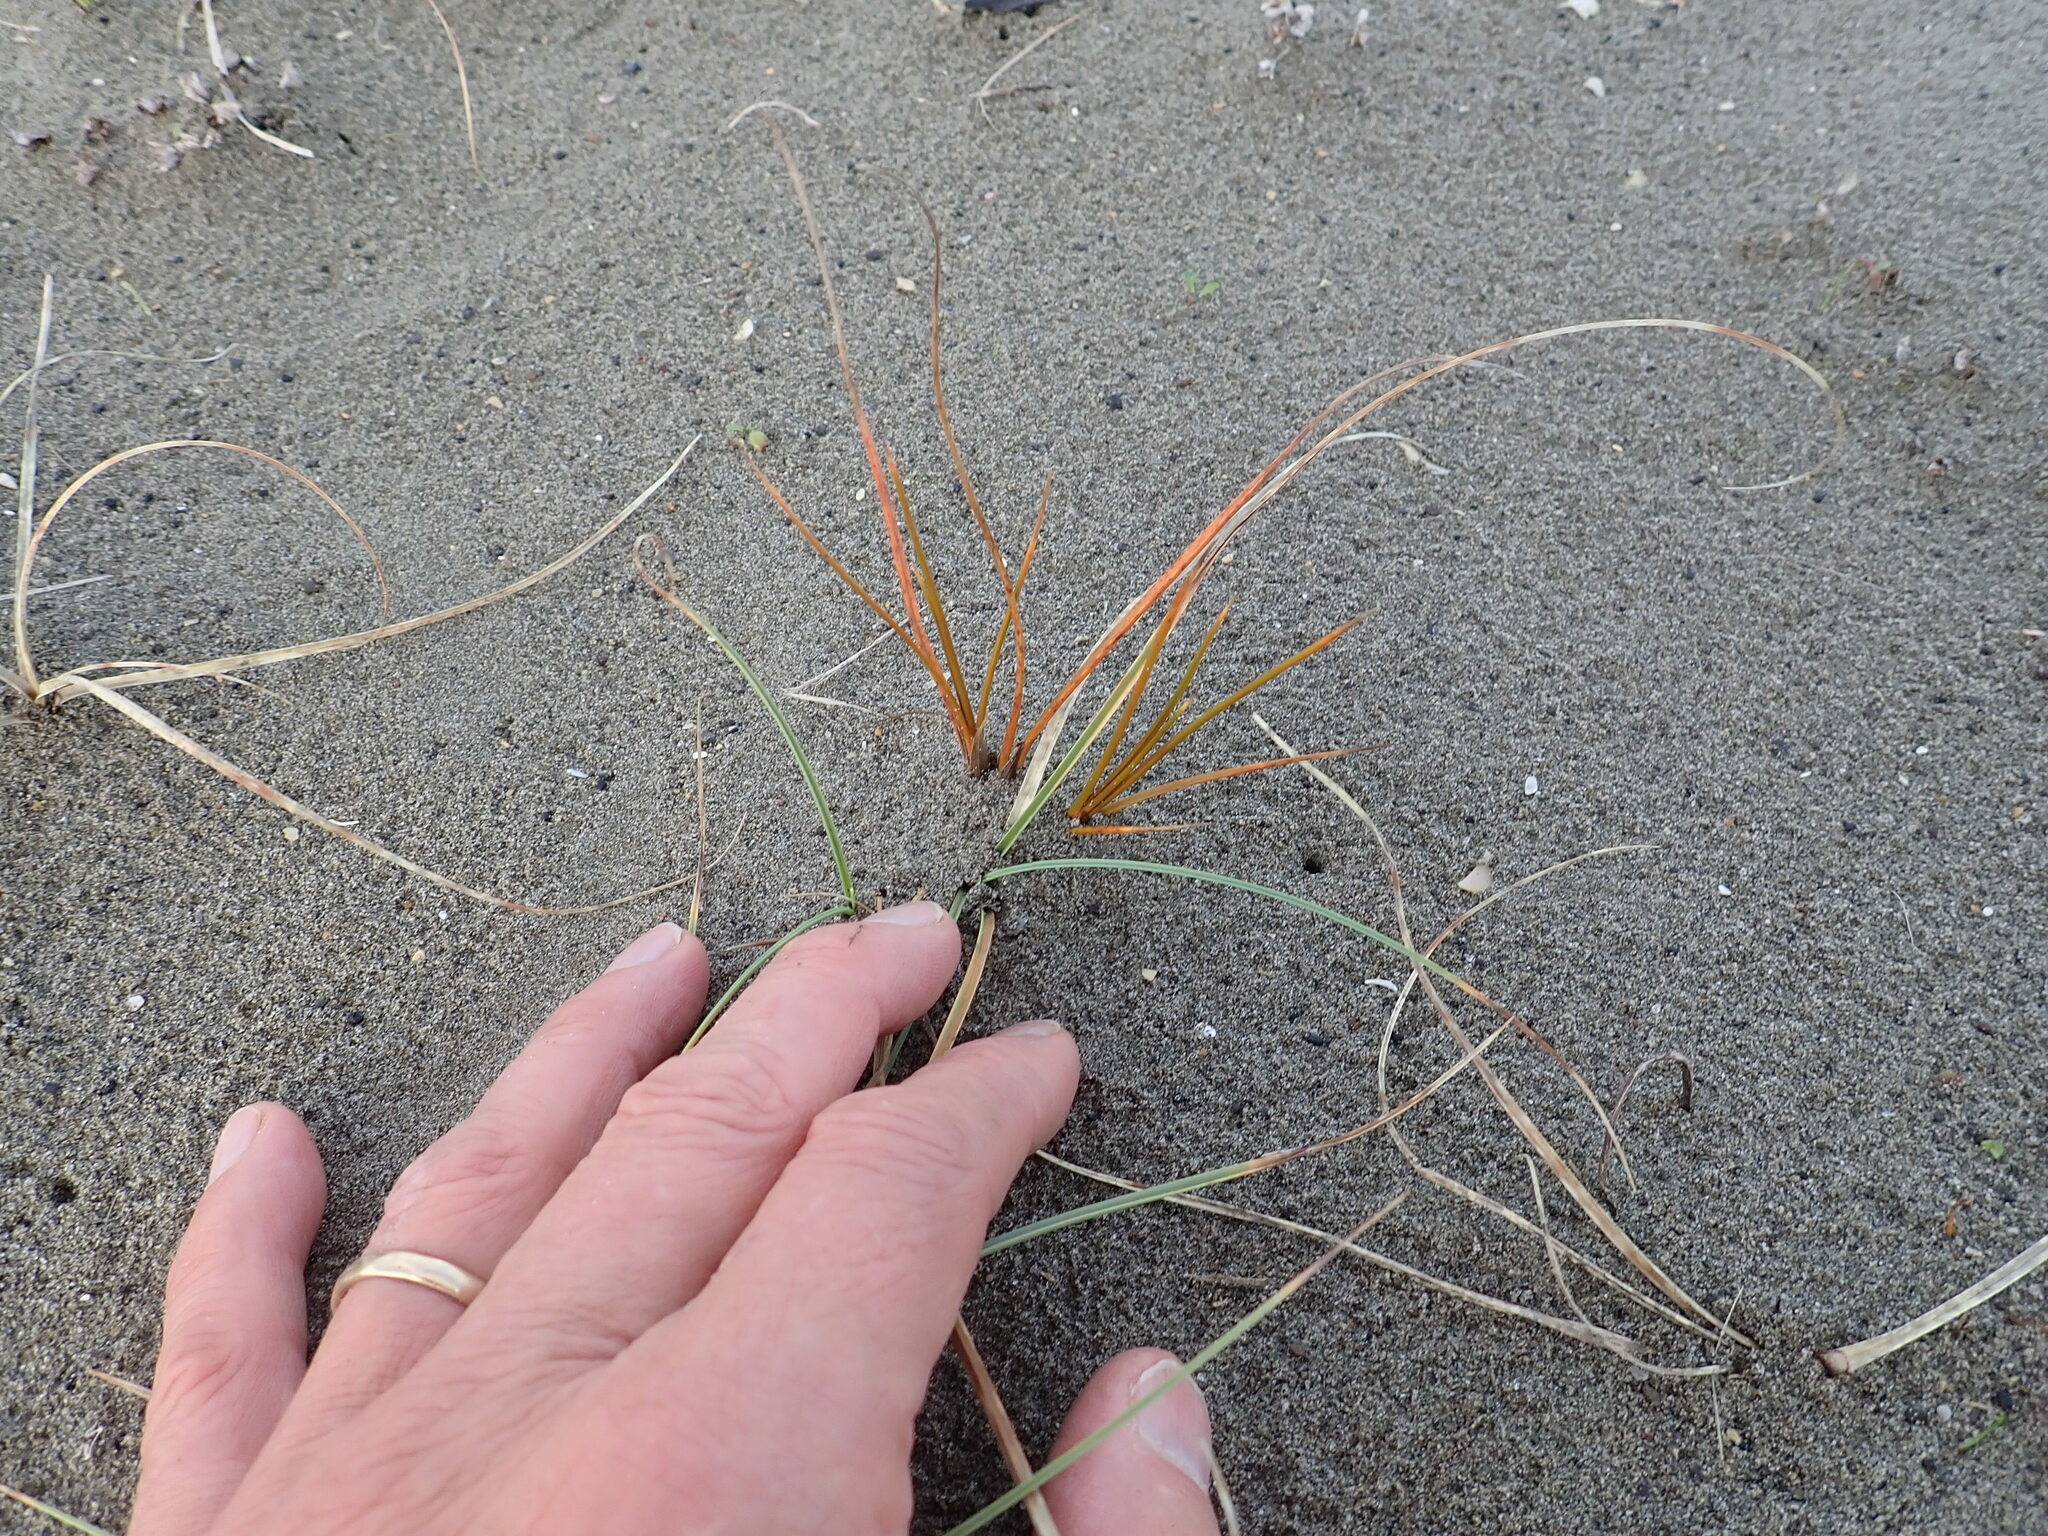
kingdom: Plantae
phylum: Tracheophyta
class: Liliopsida
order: Poales
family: Cyperaceae
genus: Carex
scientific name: Carex testacea
